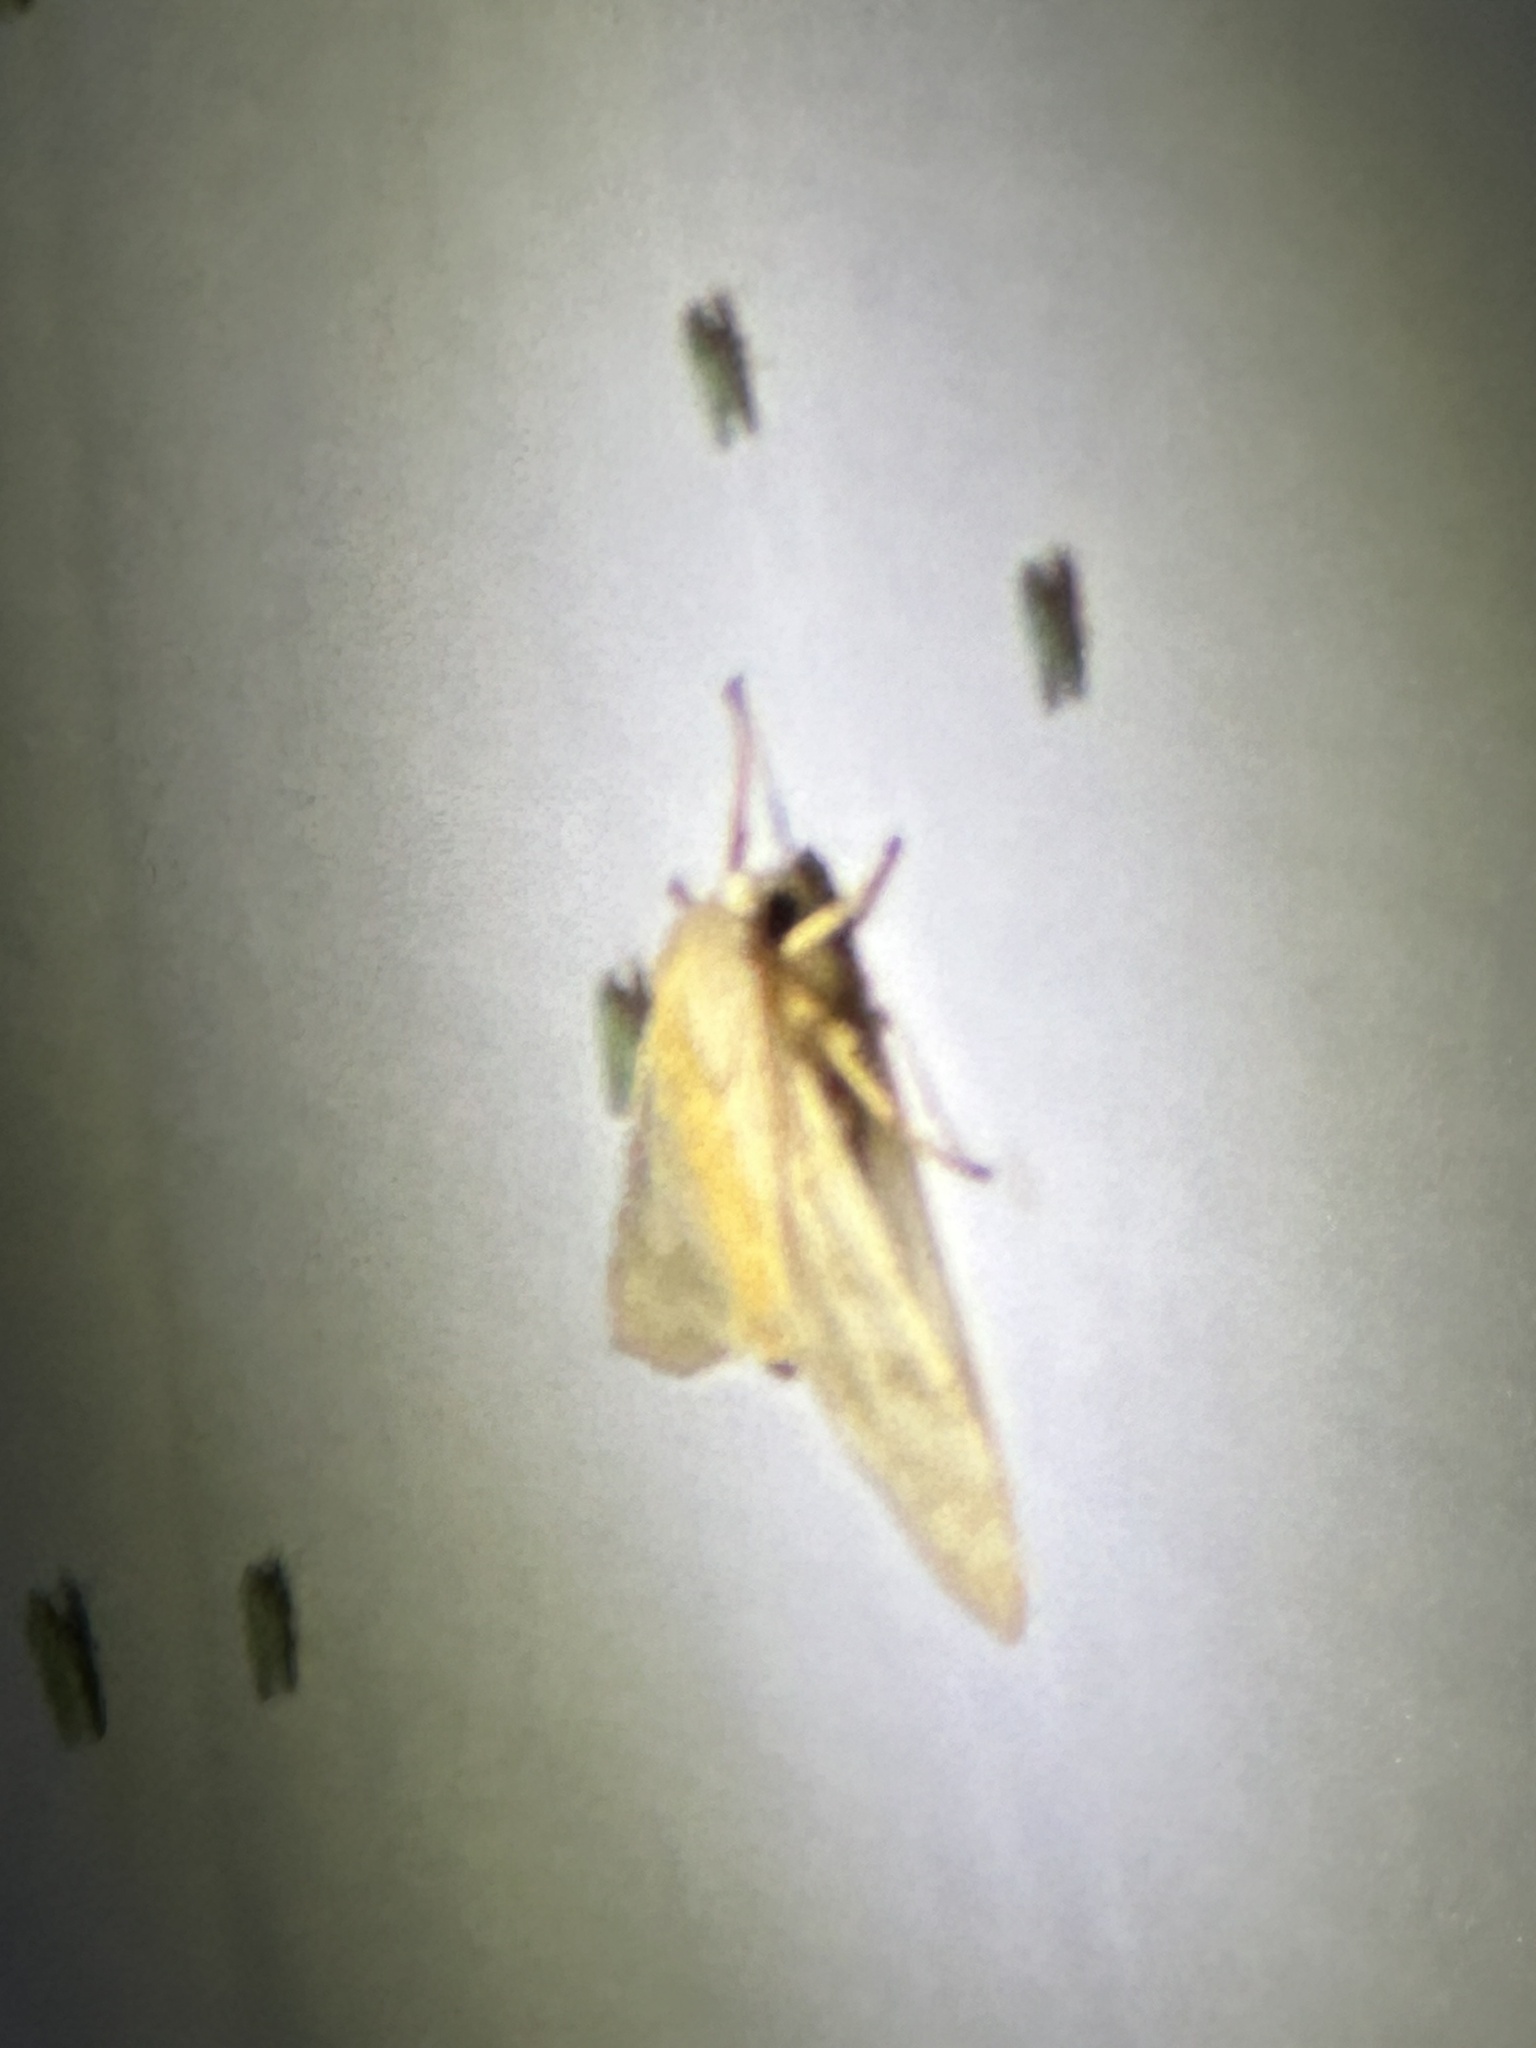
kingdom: Animalia
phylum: Arthropoda
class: Insecta
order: Lepidoptera
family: Erebidae
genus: Halysidota
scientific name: Halysidota
